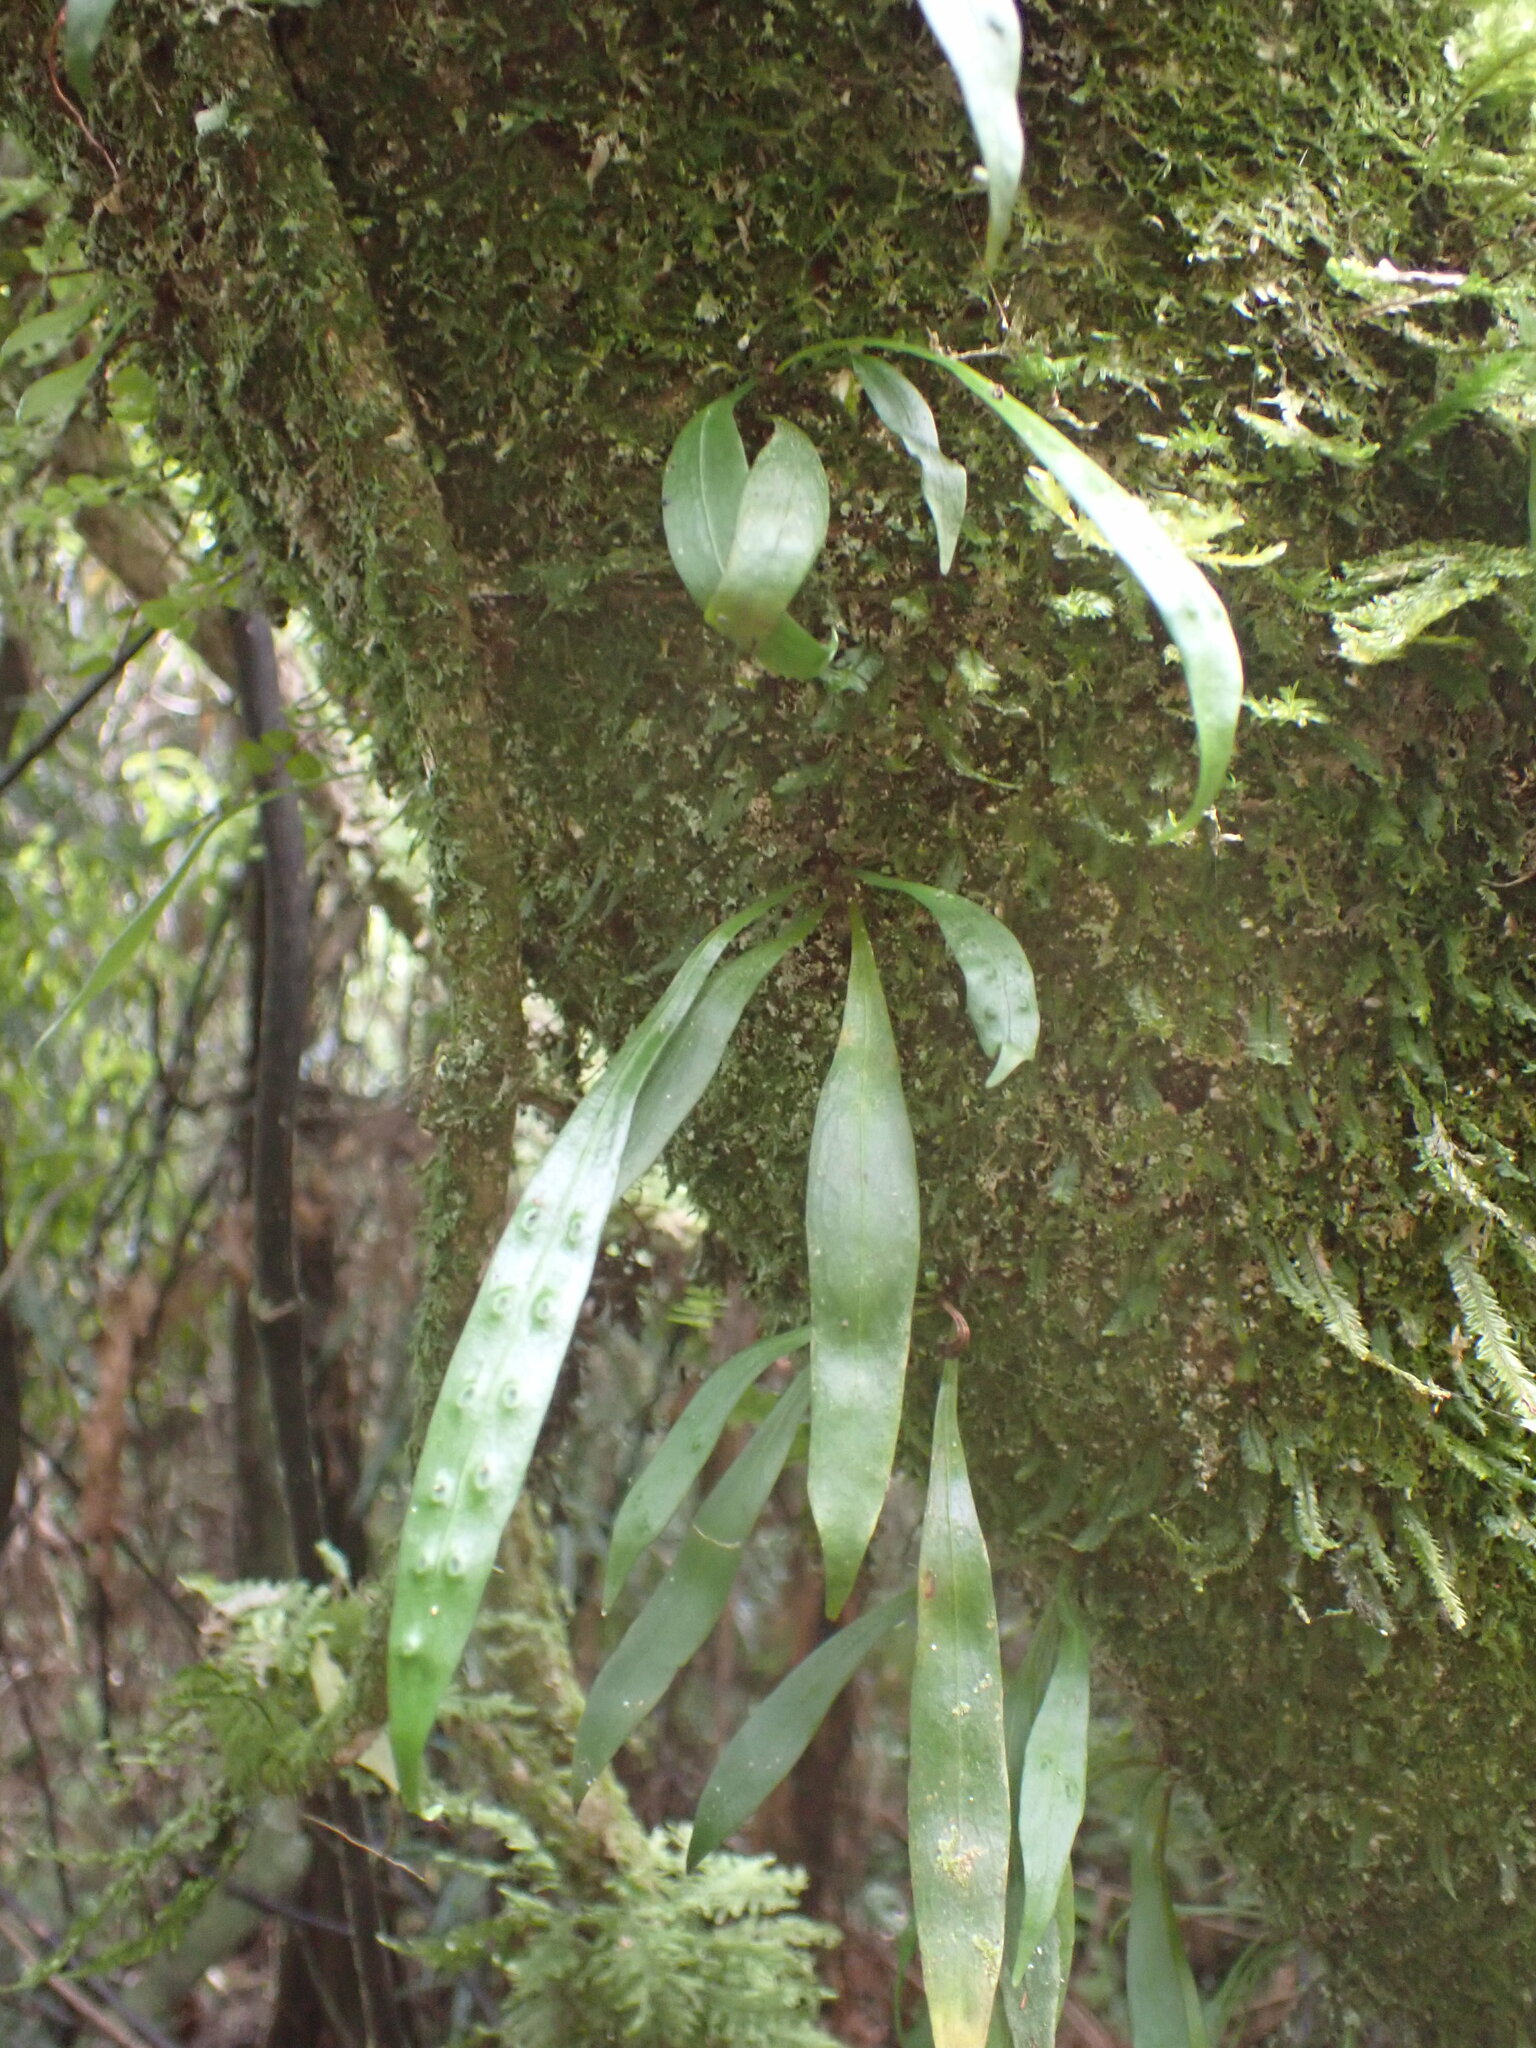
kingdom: Plantae
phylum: Tracheophyta
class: Polypodiopsida
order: Polypodiales
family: Polypodiaceae
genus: Loxogramme
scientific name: Loxogramme dictyopteris
